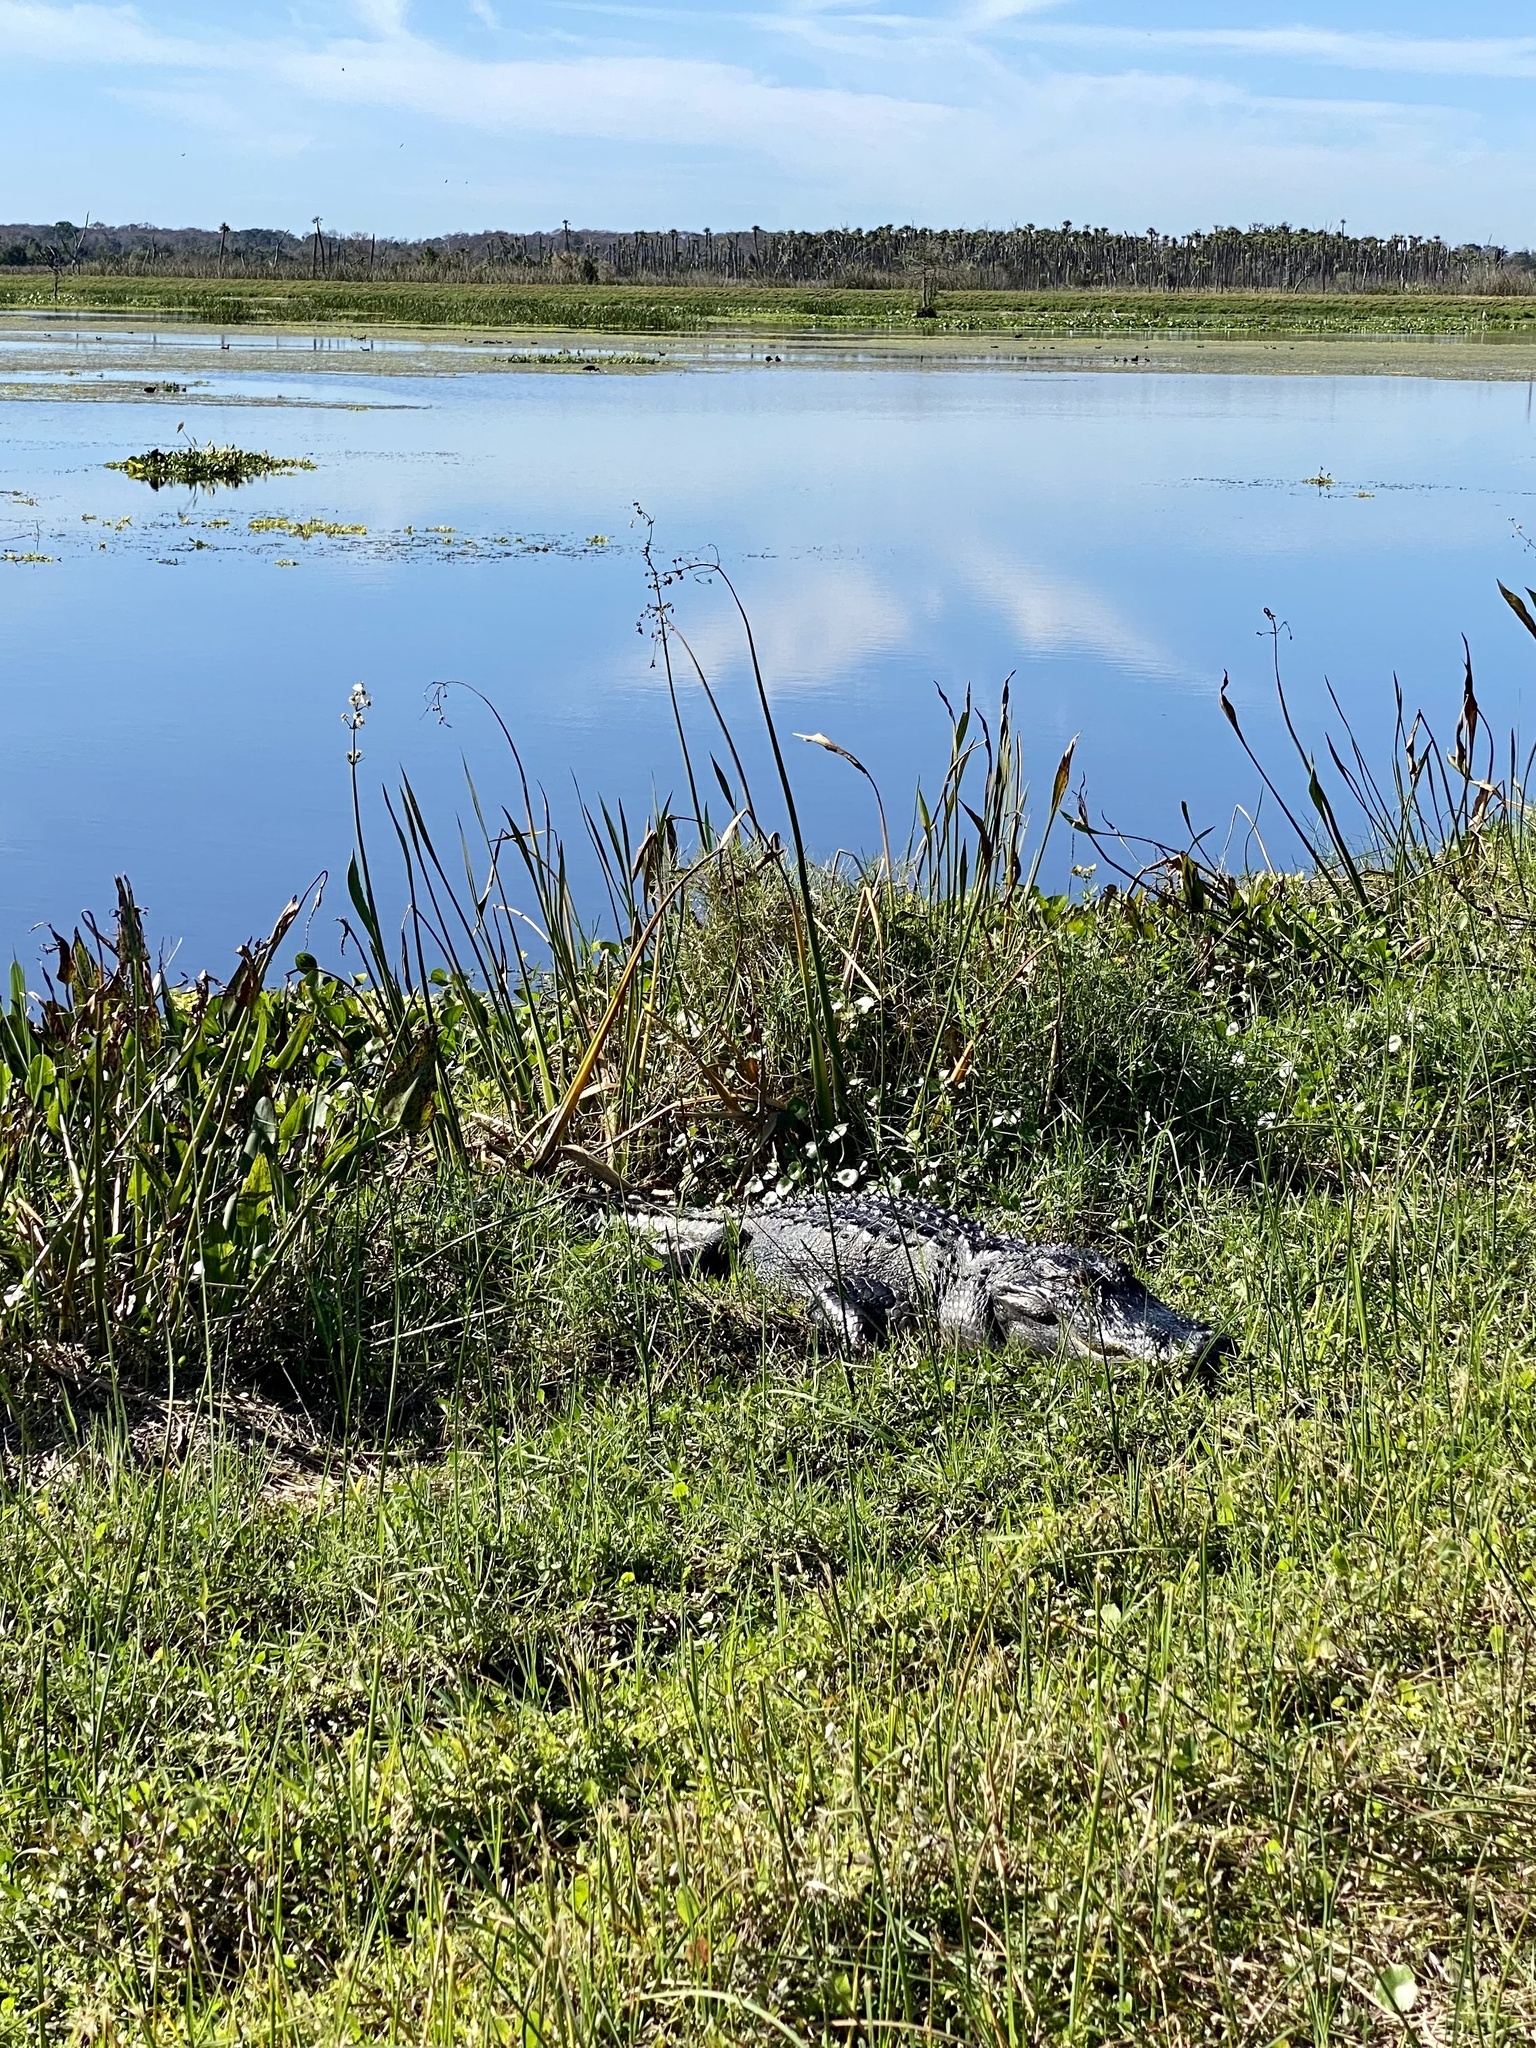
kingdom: Animalia
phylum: Chordata
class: Crocodylia
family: Alligatoridae
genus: Alligator
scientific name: Alligator mississippiensis
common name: American alligator
